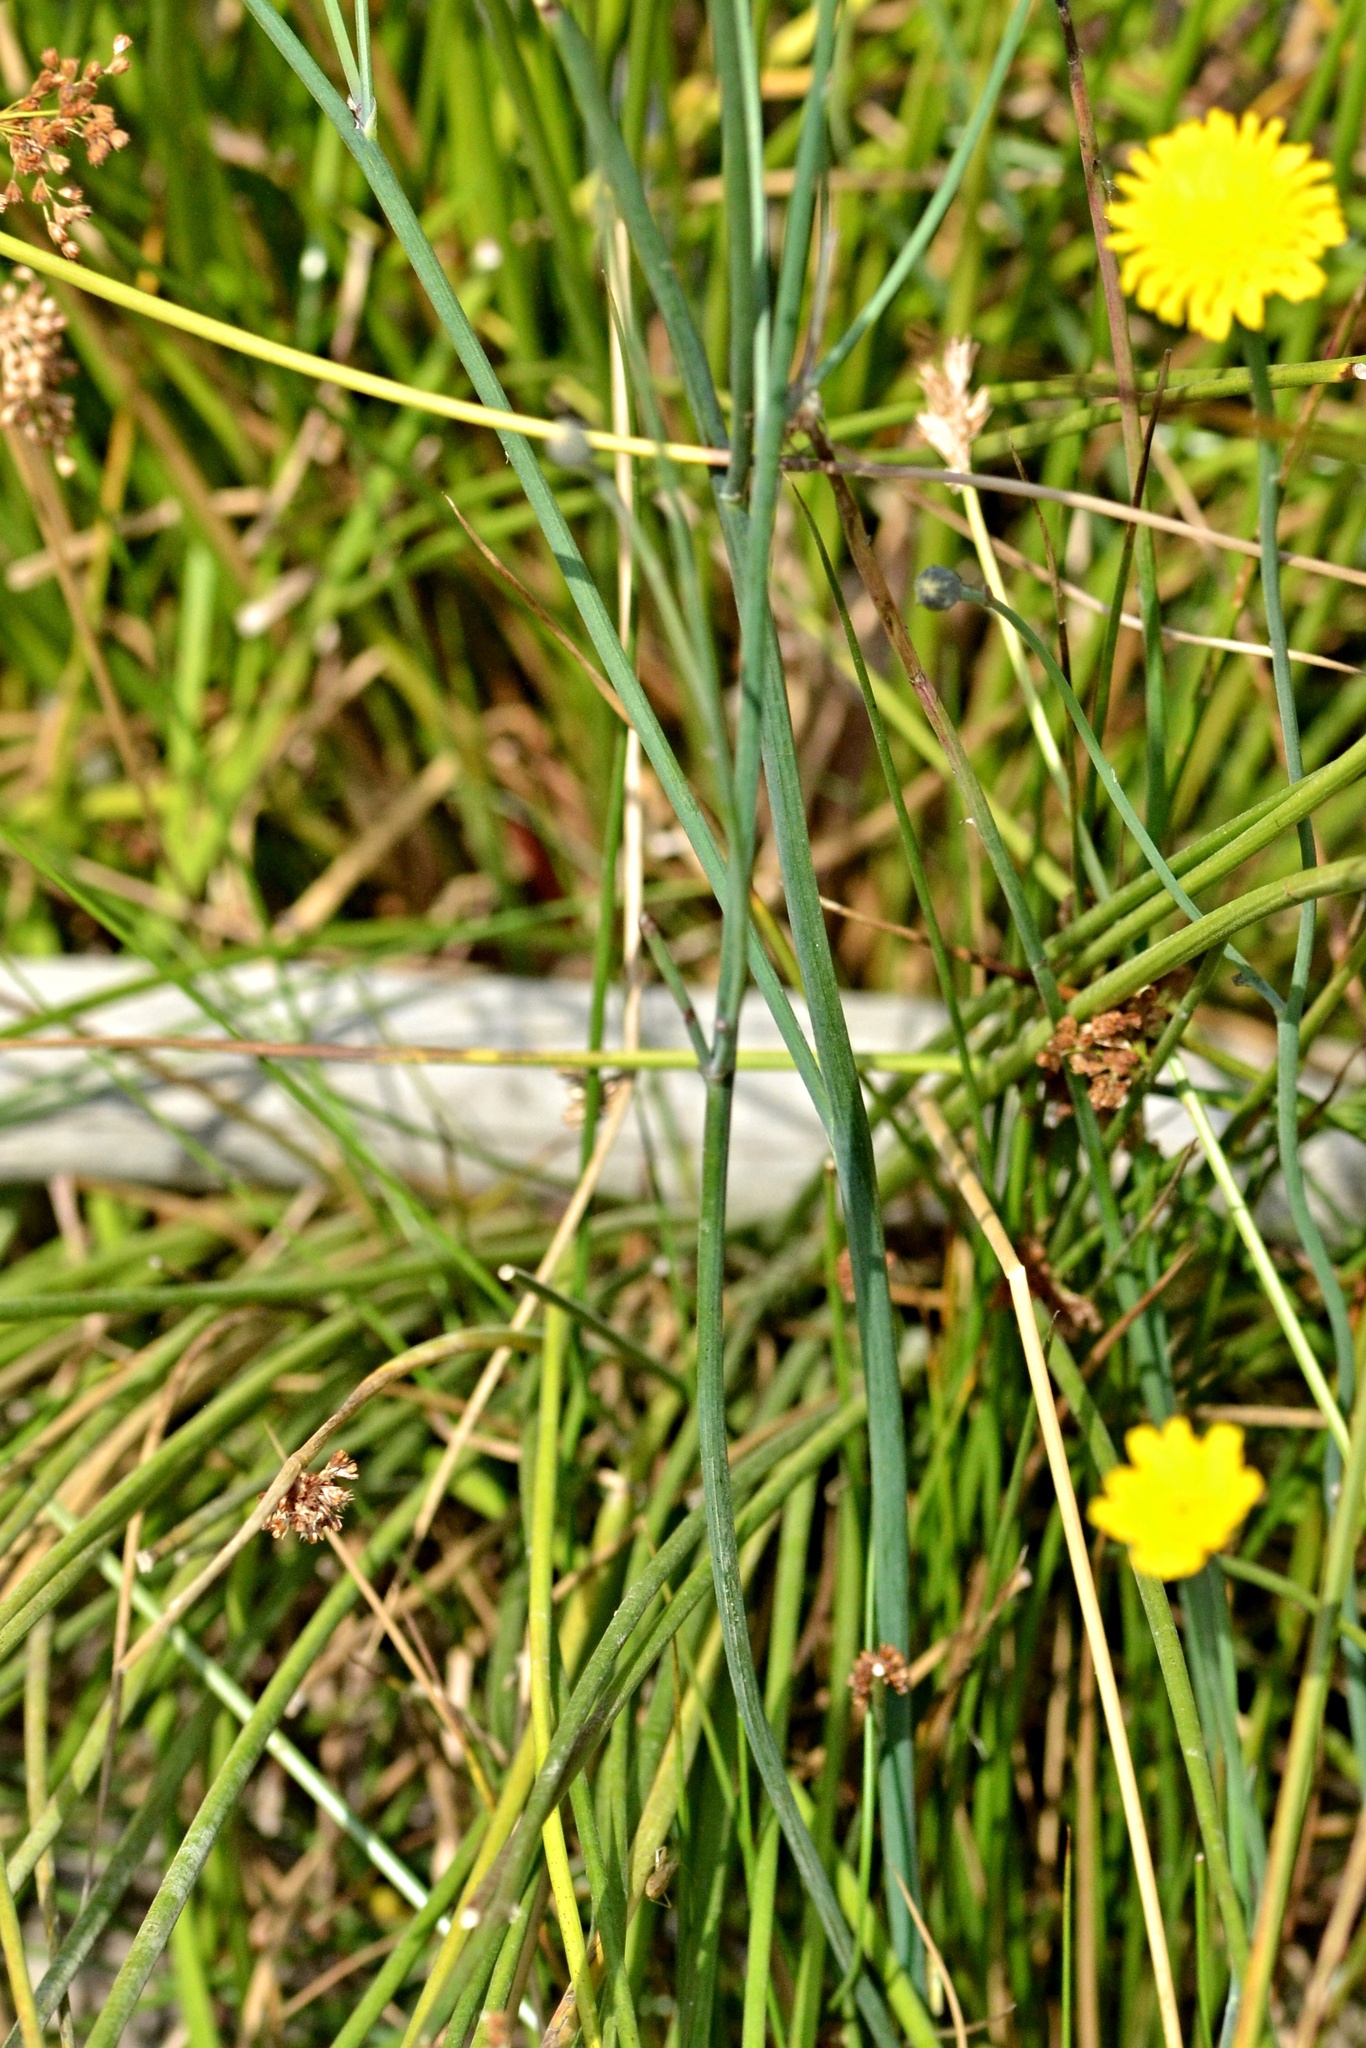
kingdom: Plantae
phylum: Tracheophyta
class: Magnoliopsida
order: Asterales
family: Asteraceae
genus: Hypochaeris
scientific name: Hypochaeris radicata
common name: Flatweed
